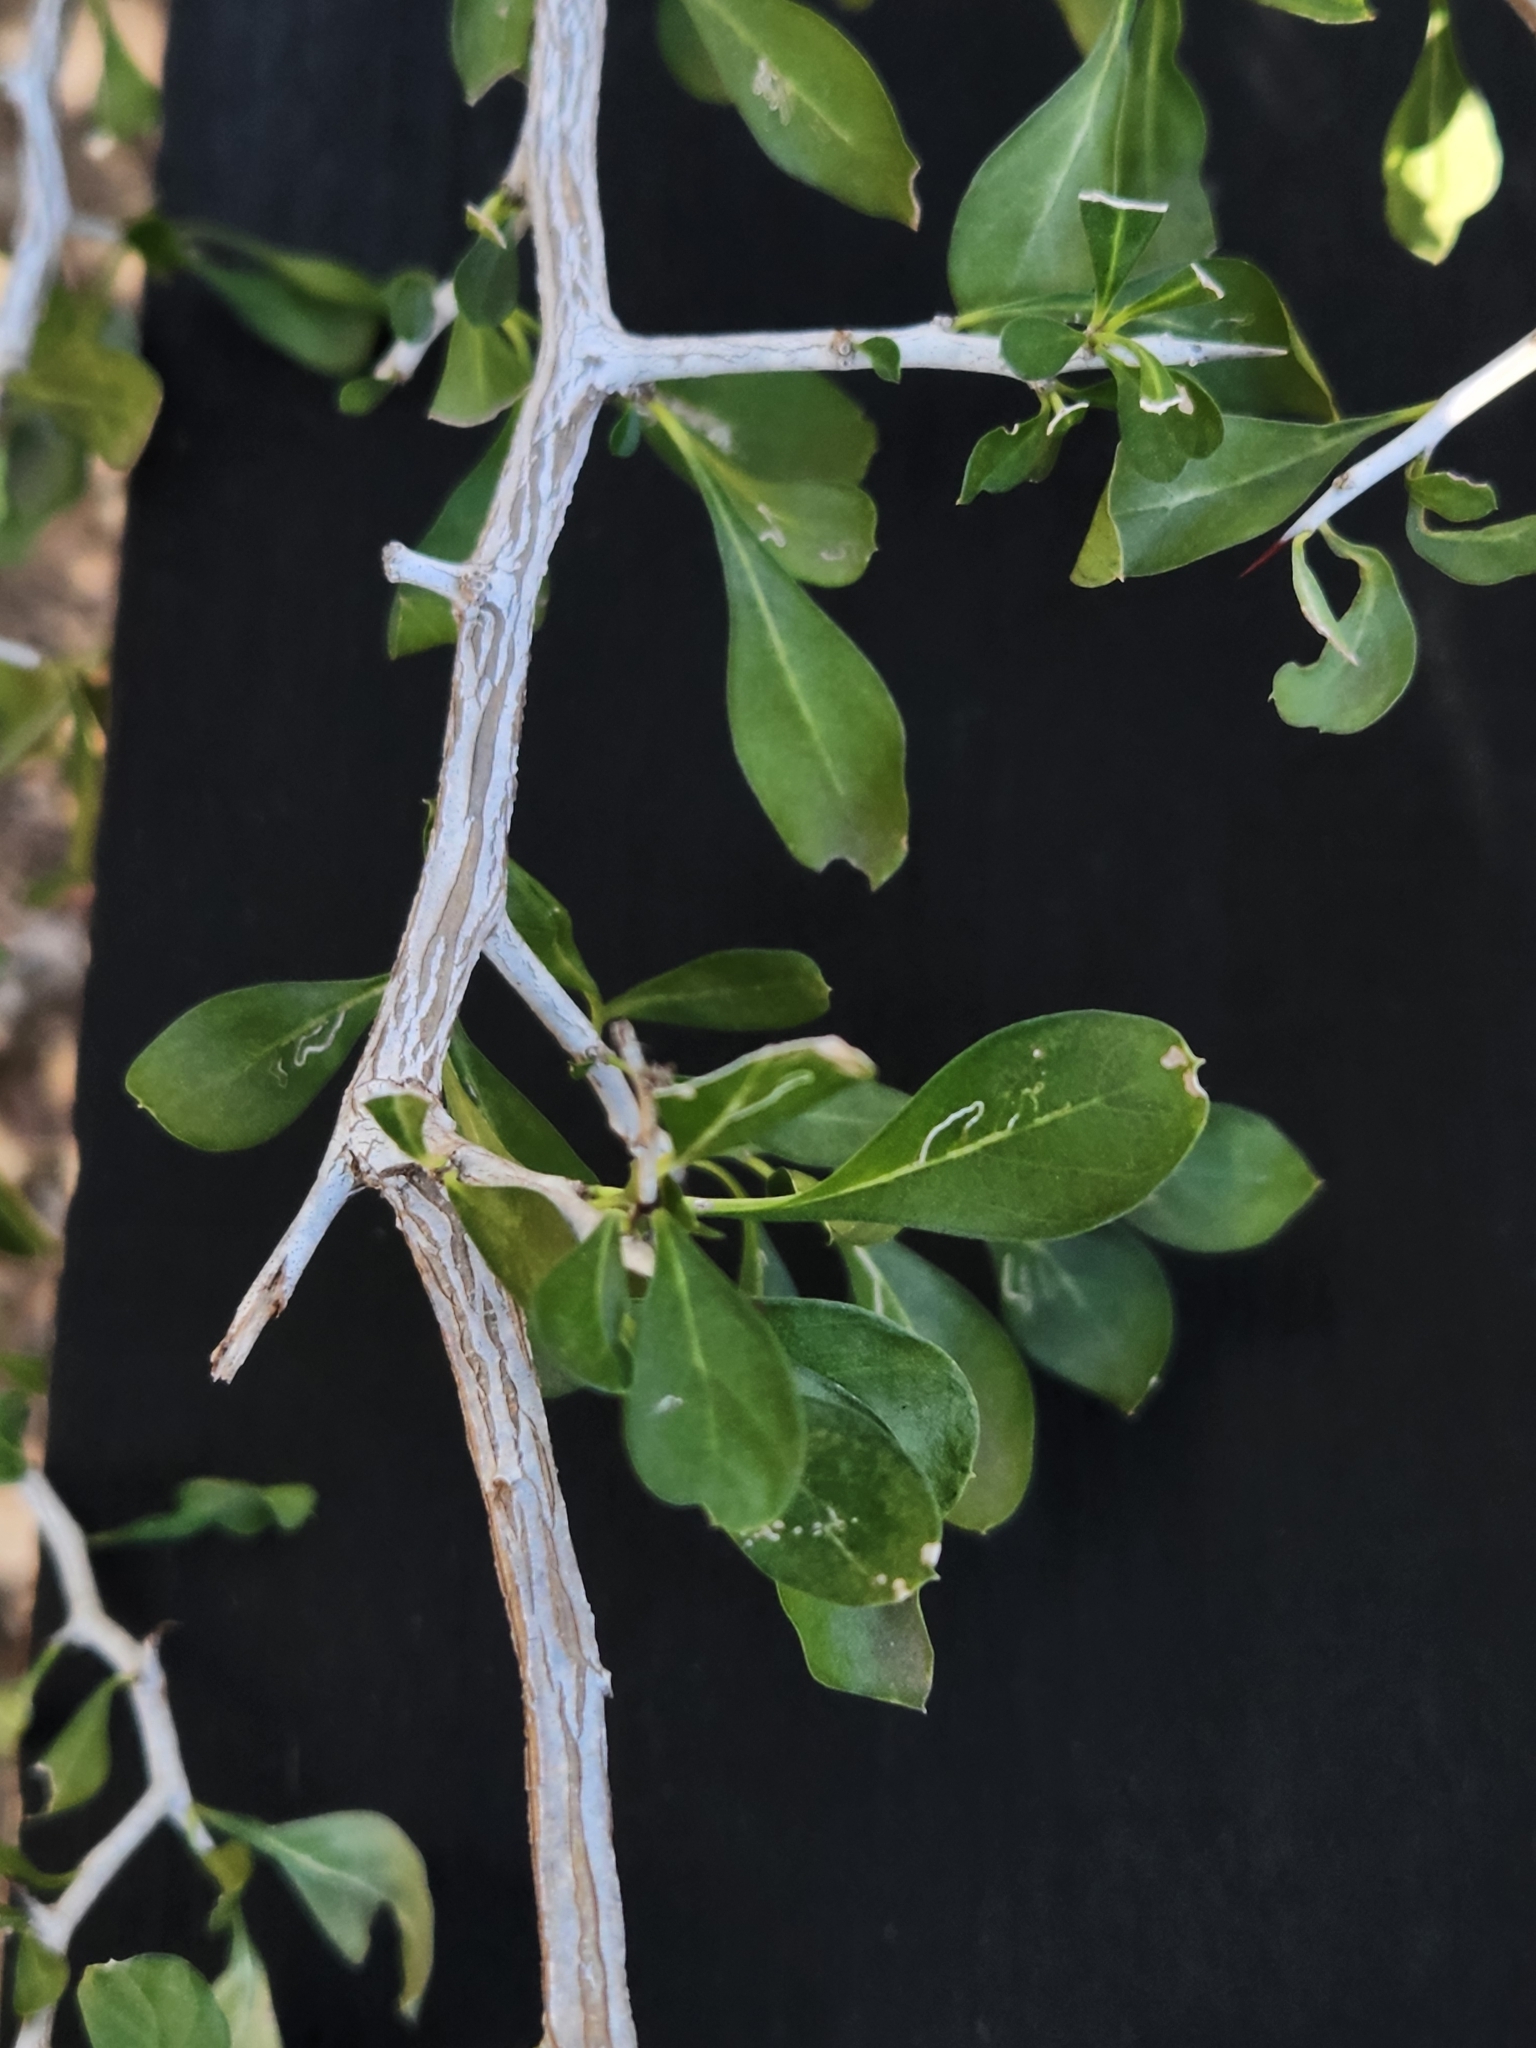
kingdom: Plantae
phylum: Tracheophyta
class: Magnoliopsida
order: Rosales
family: Rhamnaceae
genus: Condalia
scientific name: Condalia hookeri
